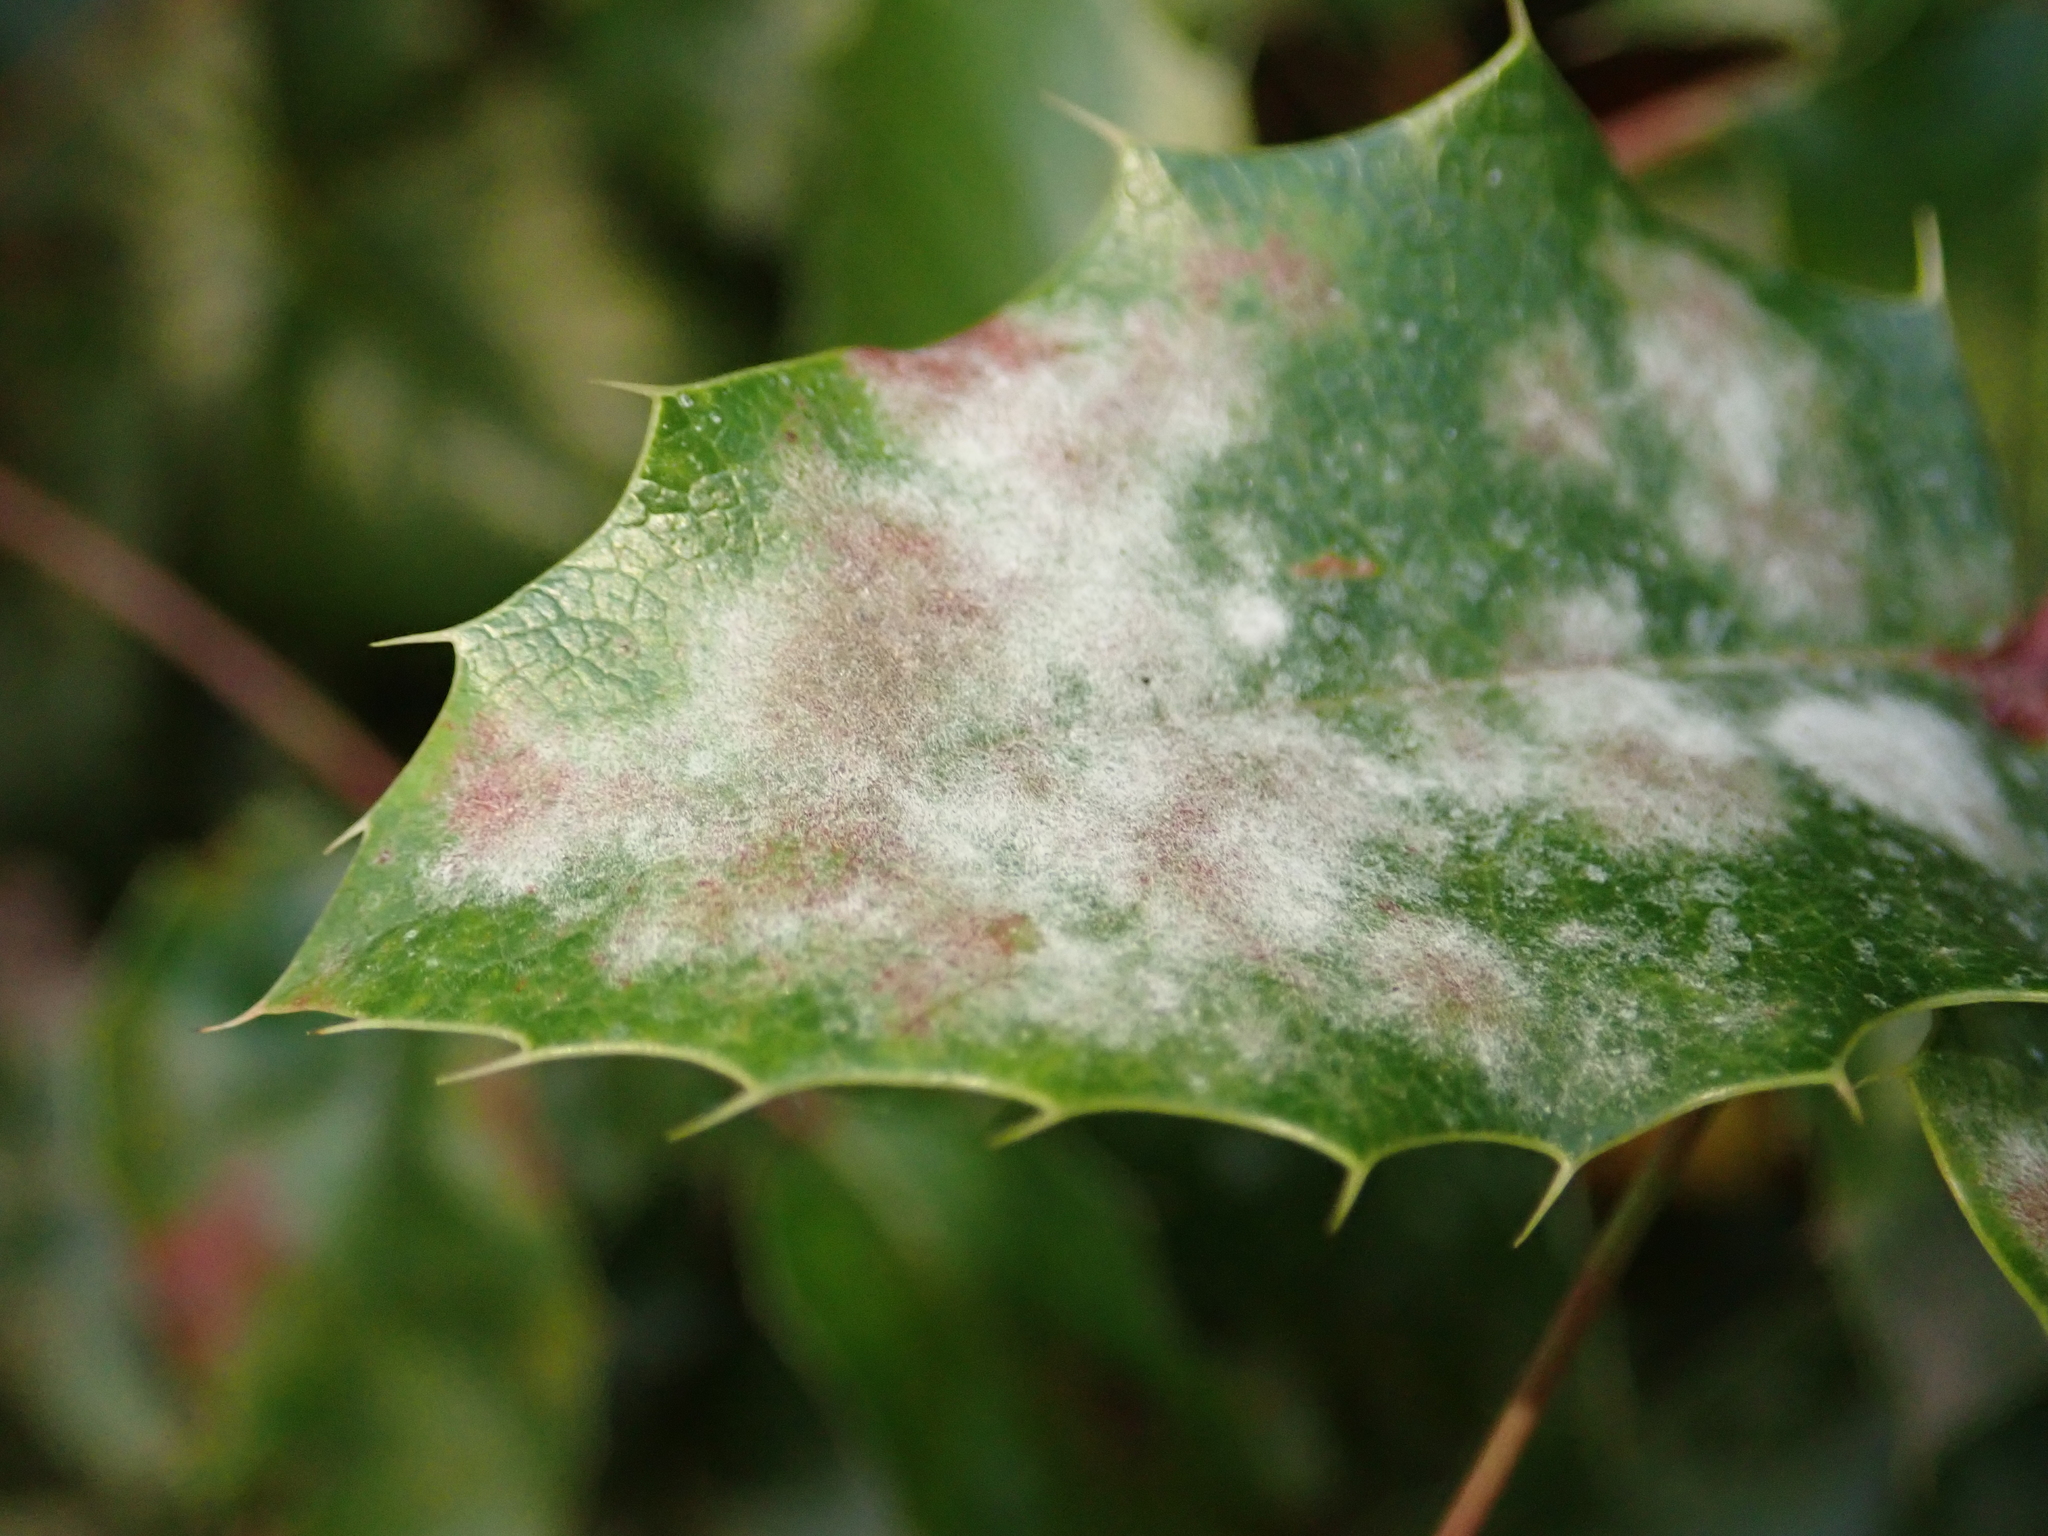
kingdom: Fungi
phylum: Ascomycota
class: Leotiomycetes
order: Helotiales
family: Erysiphaceae
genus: Erysiphe
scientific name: Erysiphe berberidis
